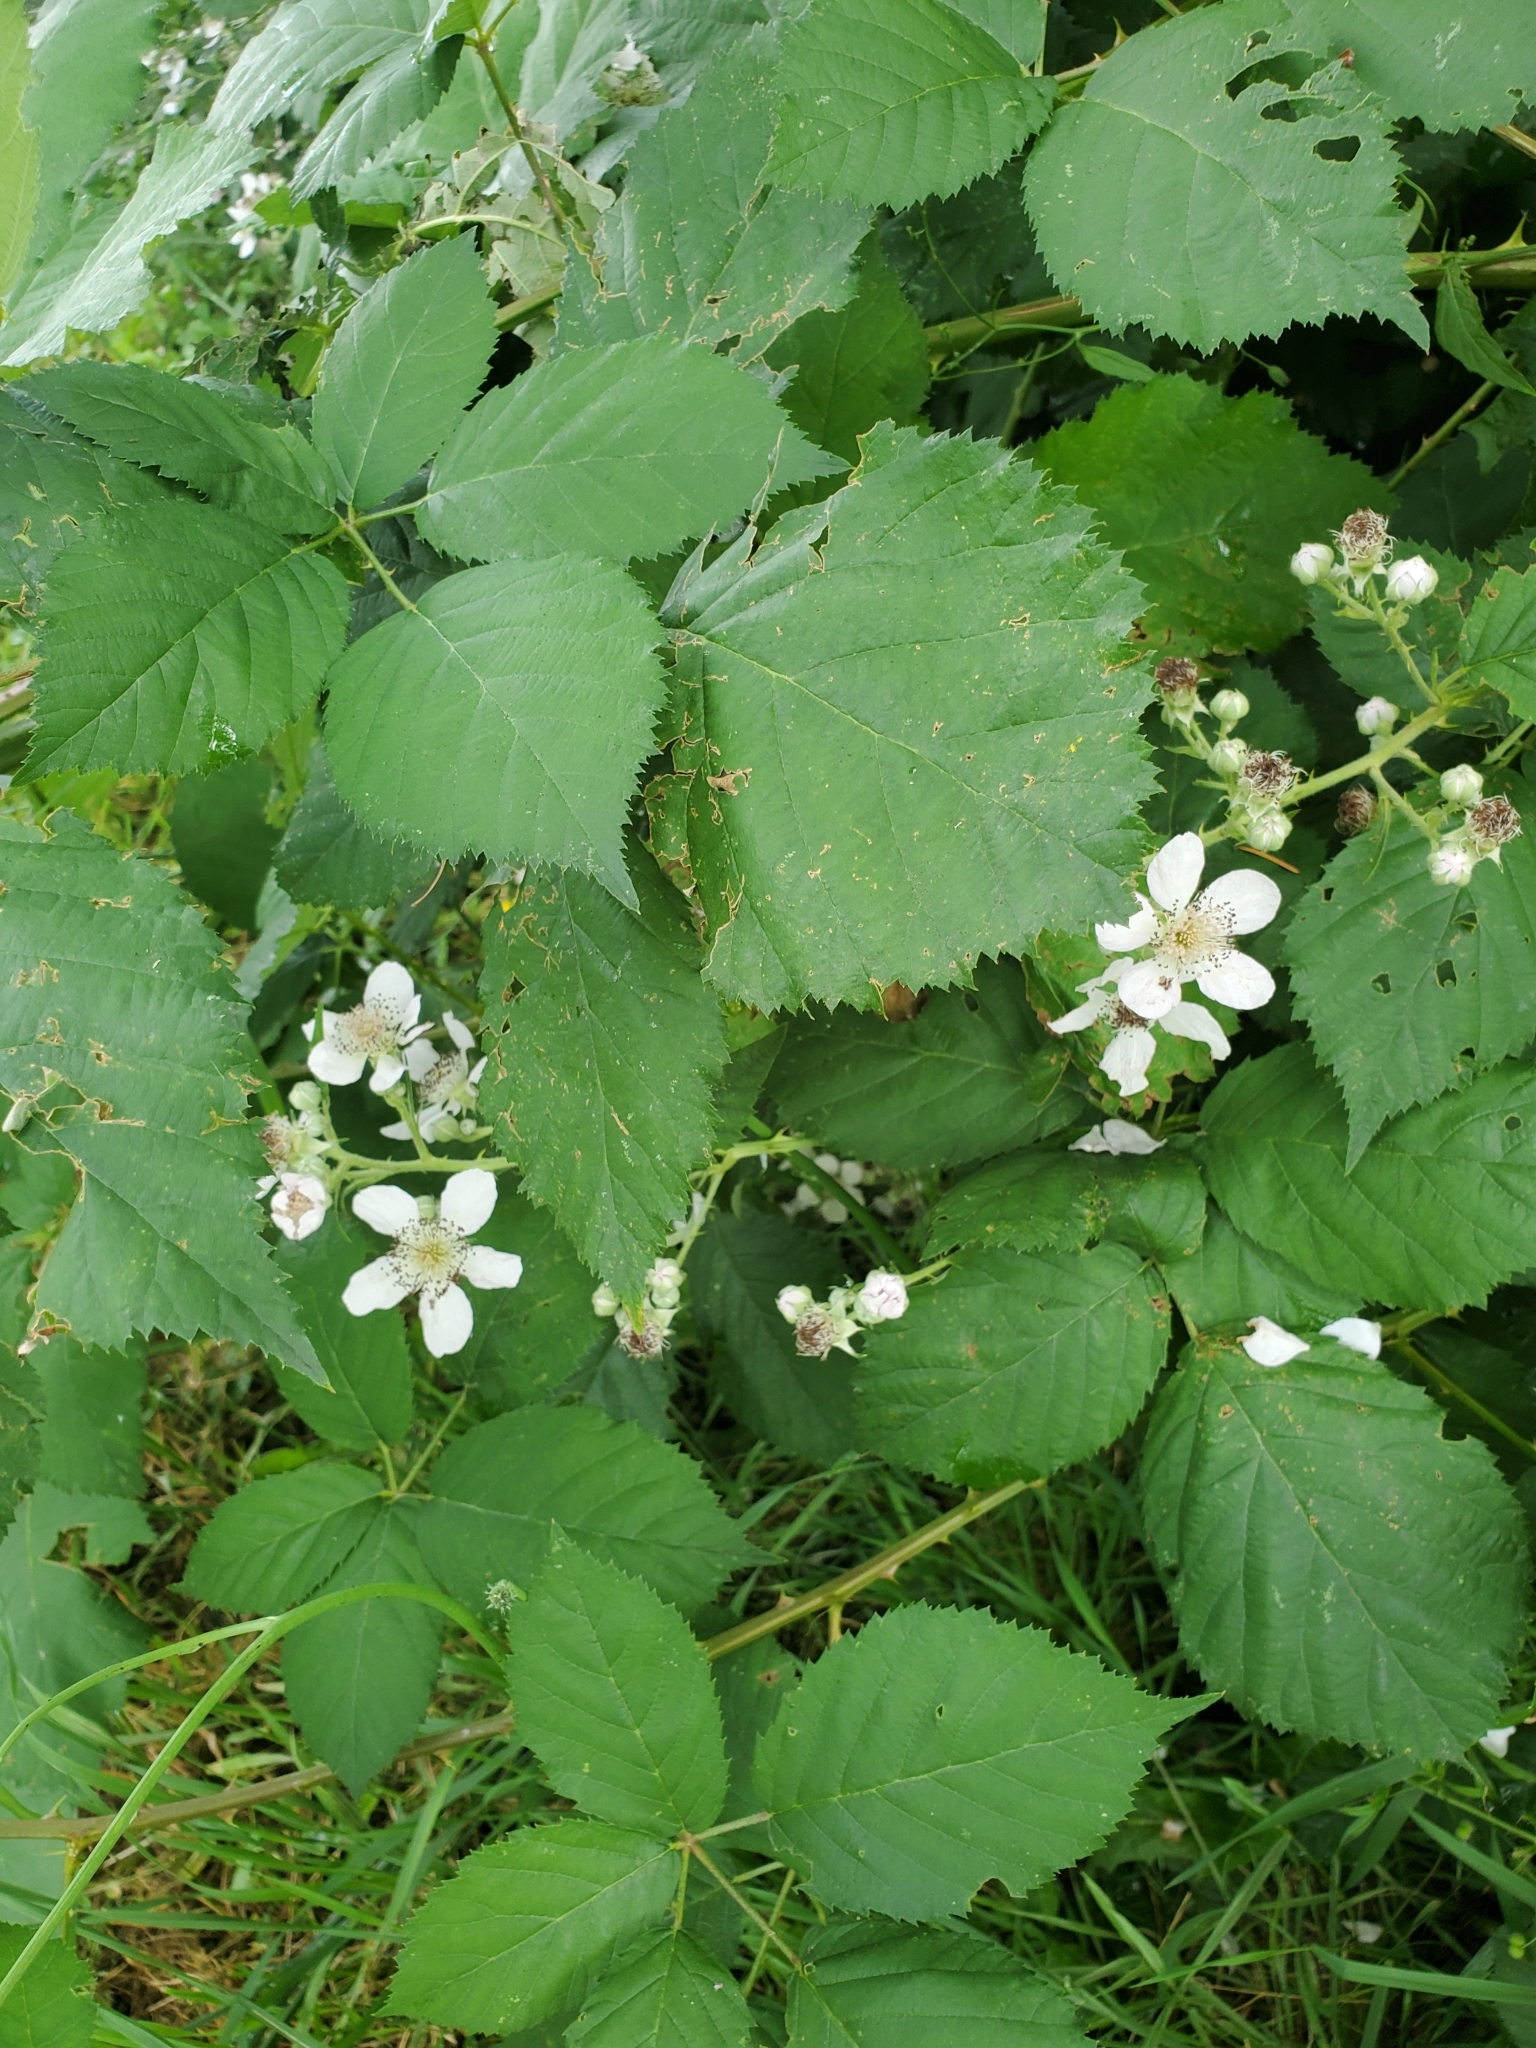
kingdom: Plantae
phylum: Tracheophyta
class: Magnoliopsida
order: Rosales
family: Rosaceae
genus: Rubus
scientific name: Rubus bifrons
